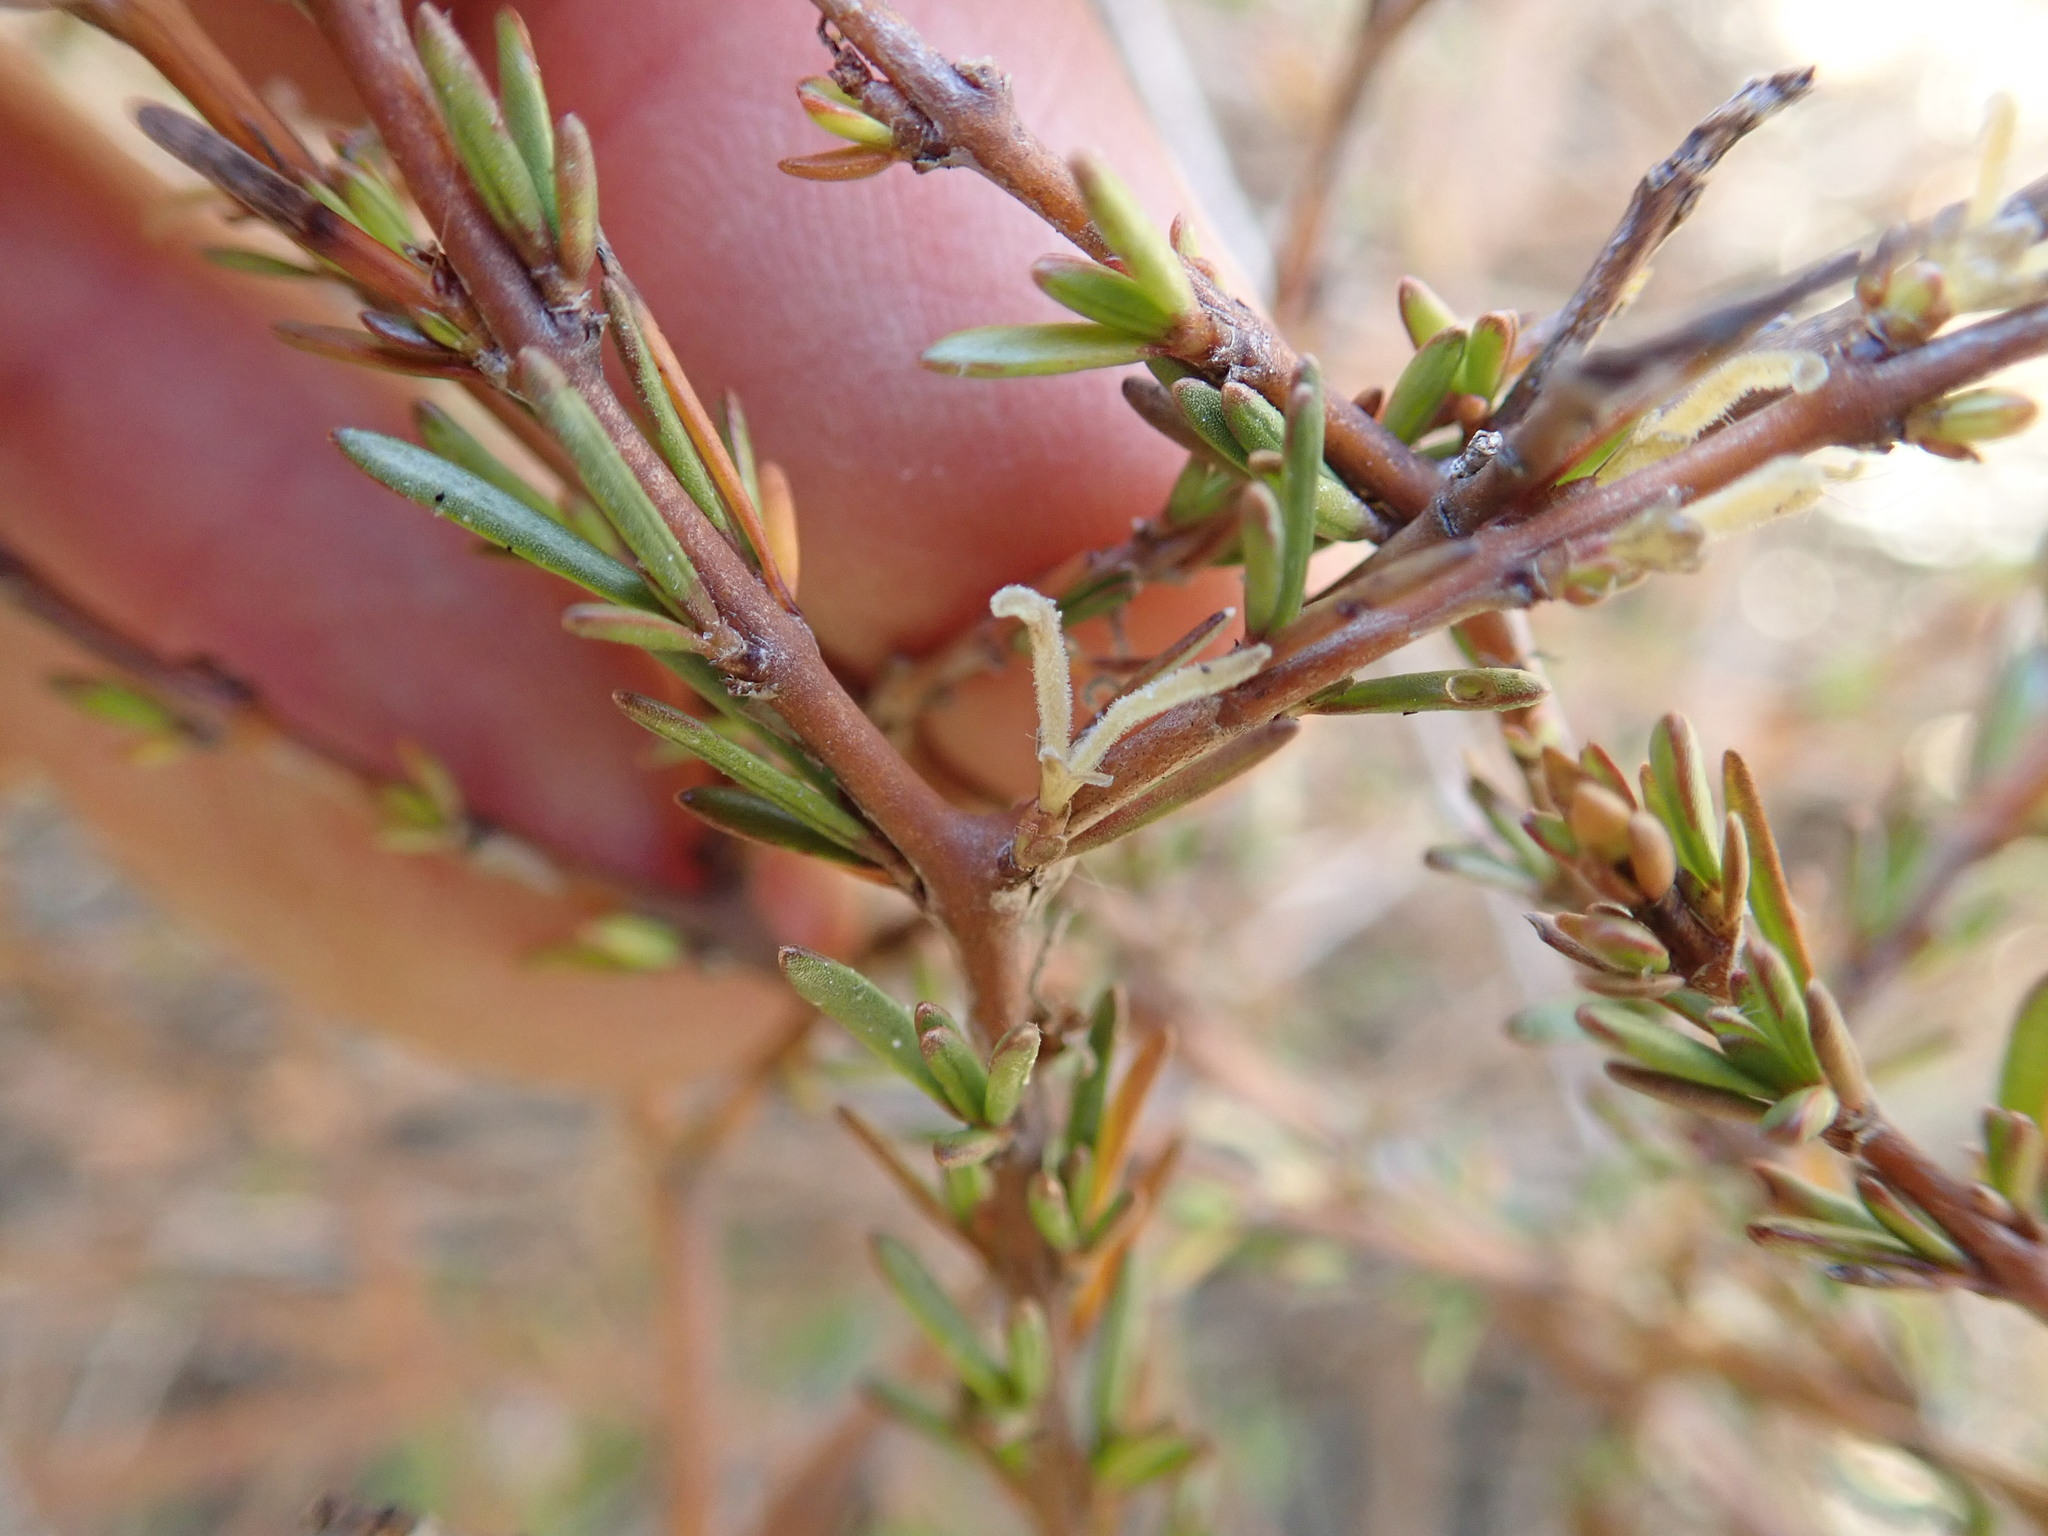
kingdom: Plantae
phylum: Tracheophyta
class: Magnoliopsida
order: Gentianales
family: Rubiaceae
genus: Coprosma
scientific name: Coprosma acerosa
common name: Sand coprosma
